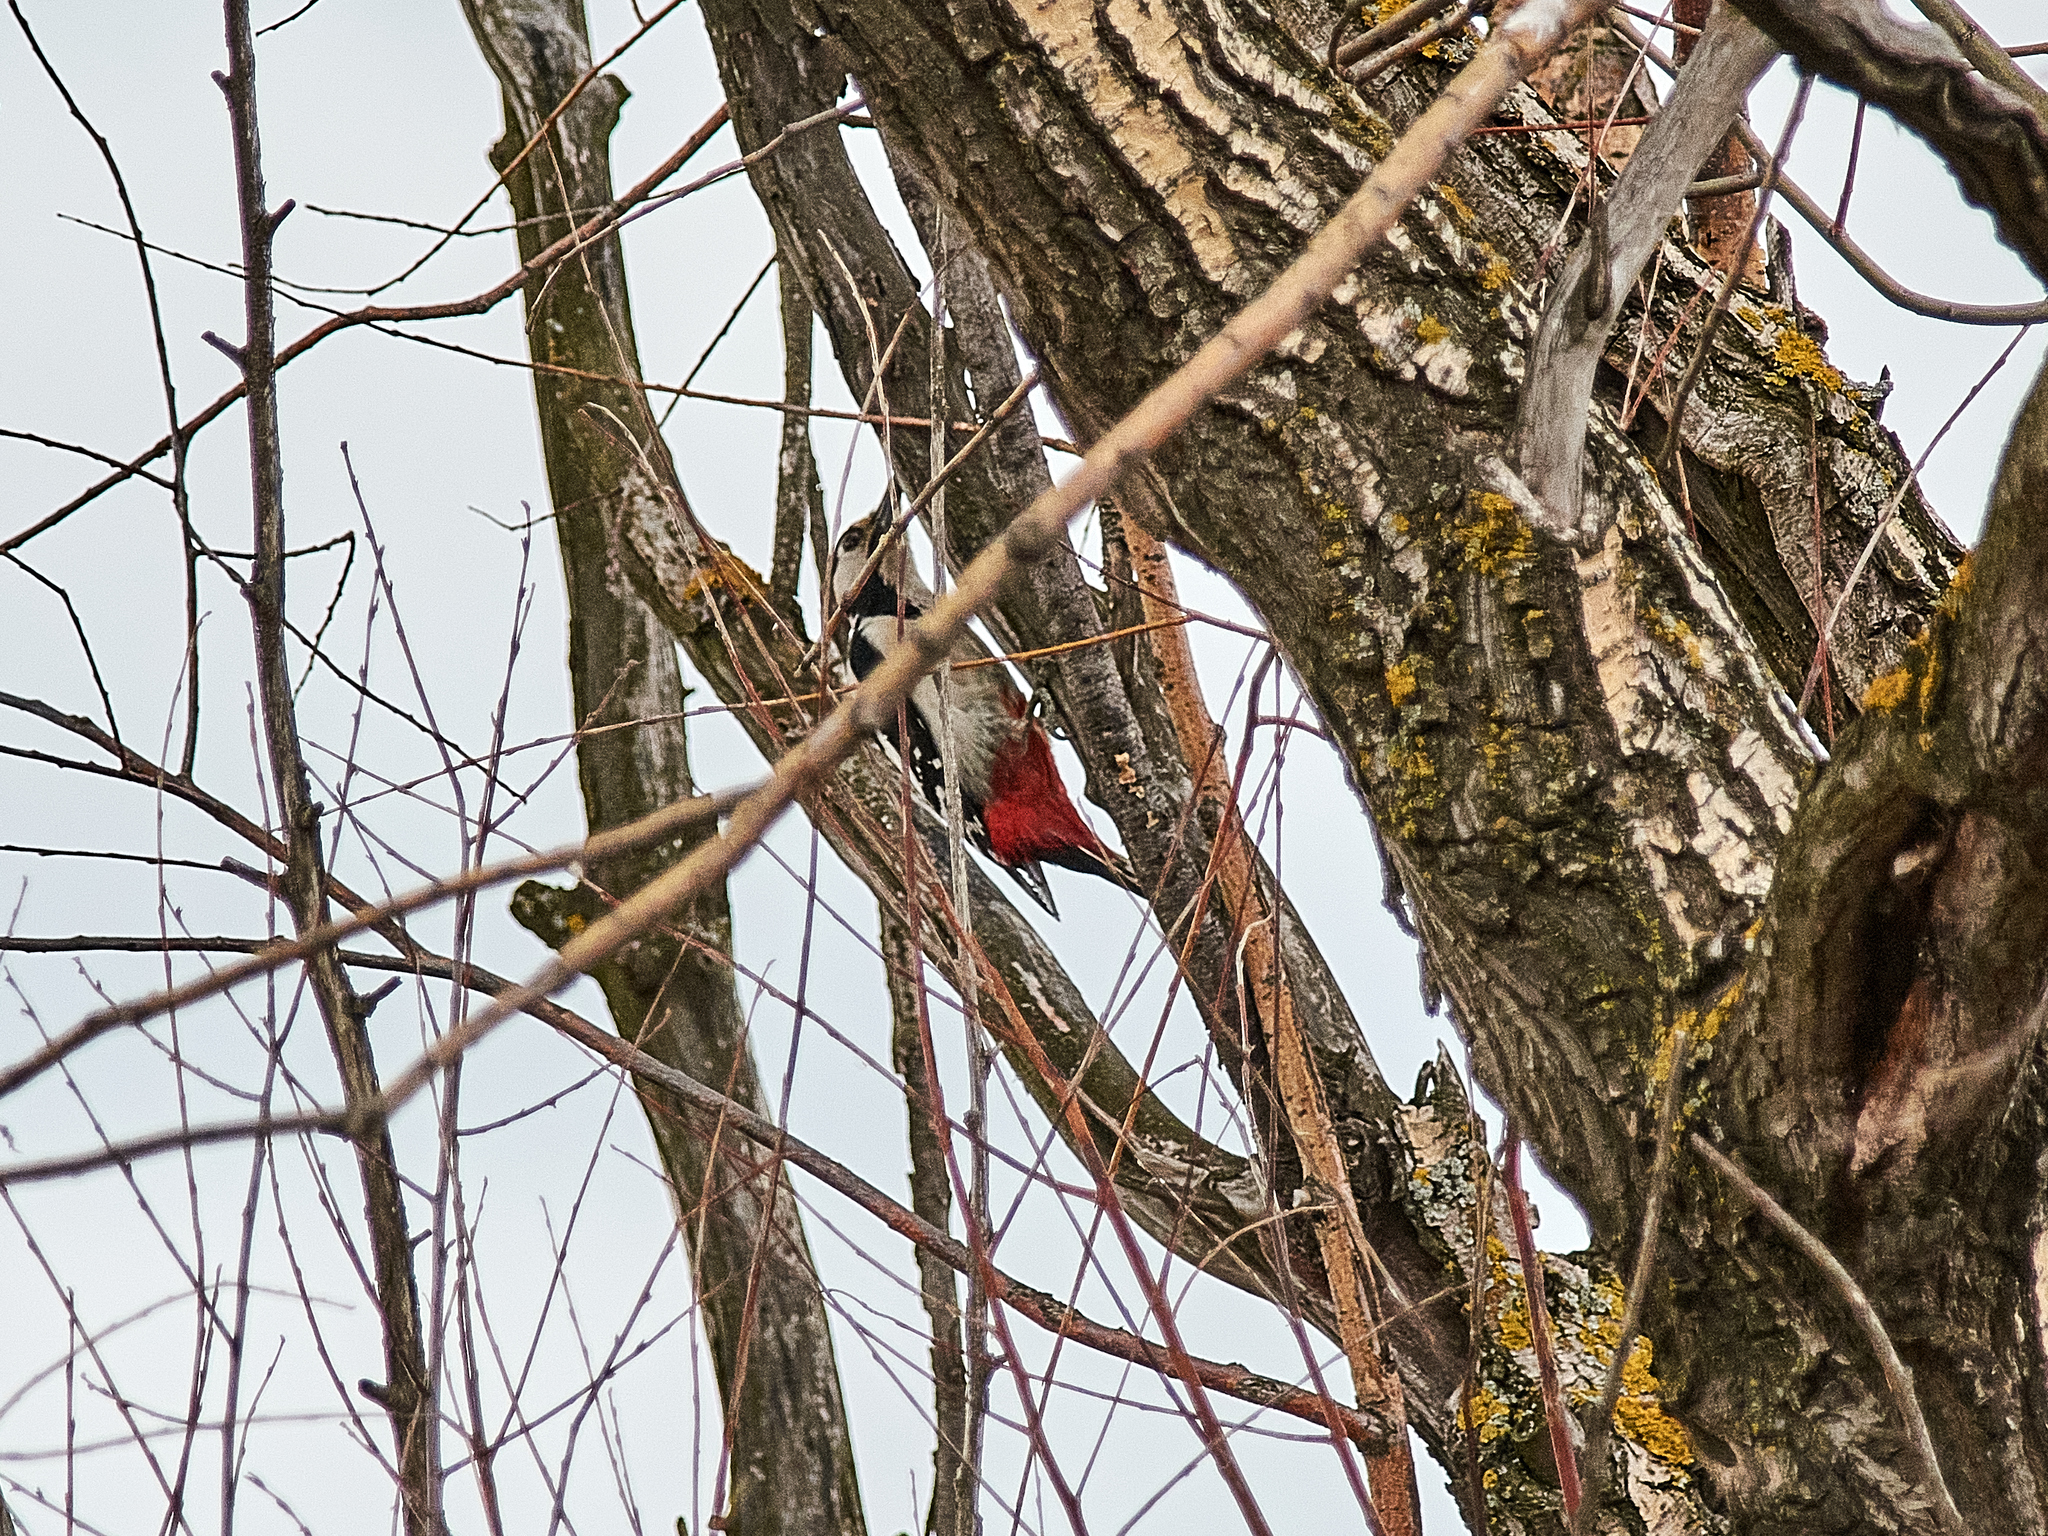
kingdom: Animalia
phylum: Chordata
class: Aves
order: Piciformes
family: Picidae
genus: Dendrocopos
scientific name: Dendrocopos major
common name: Great spotted woodpecker
